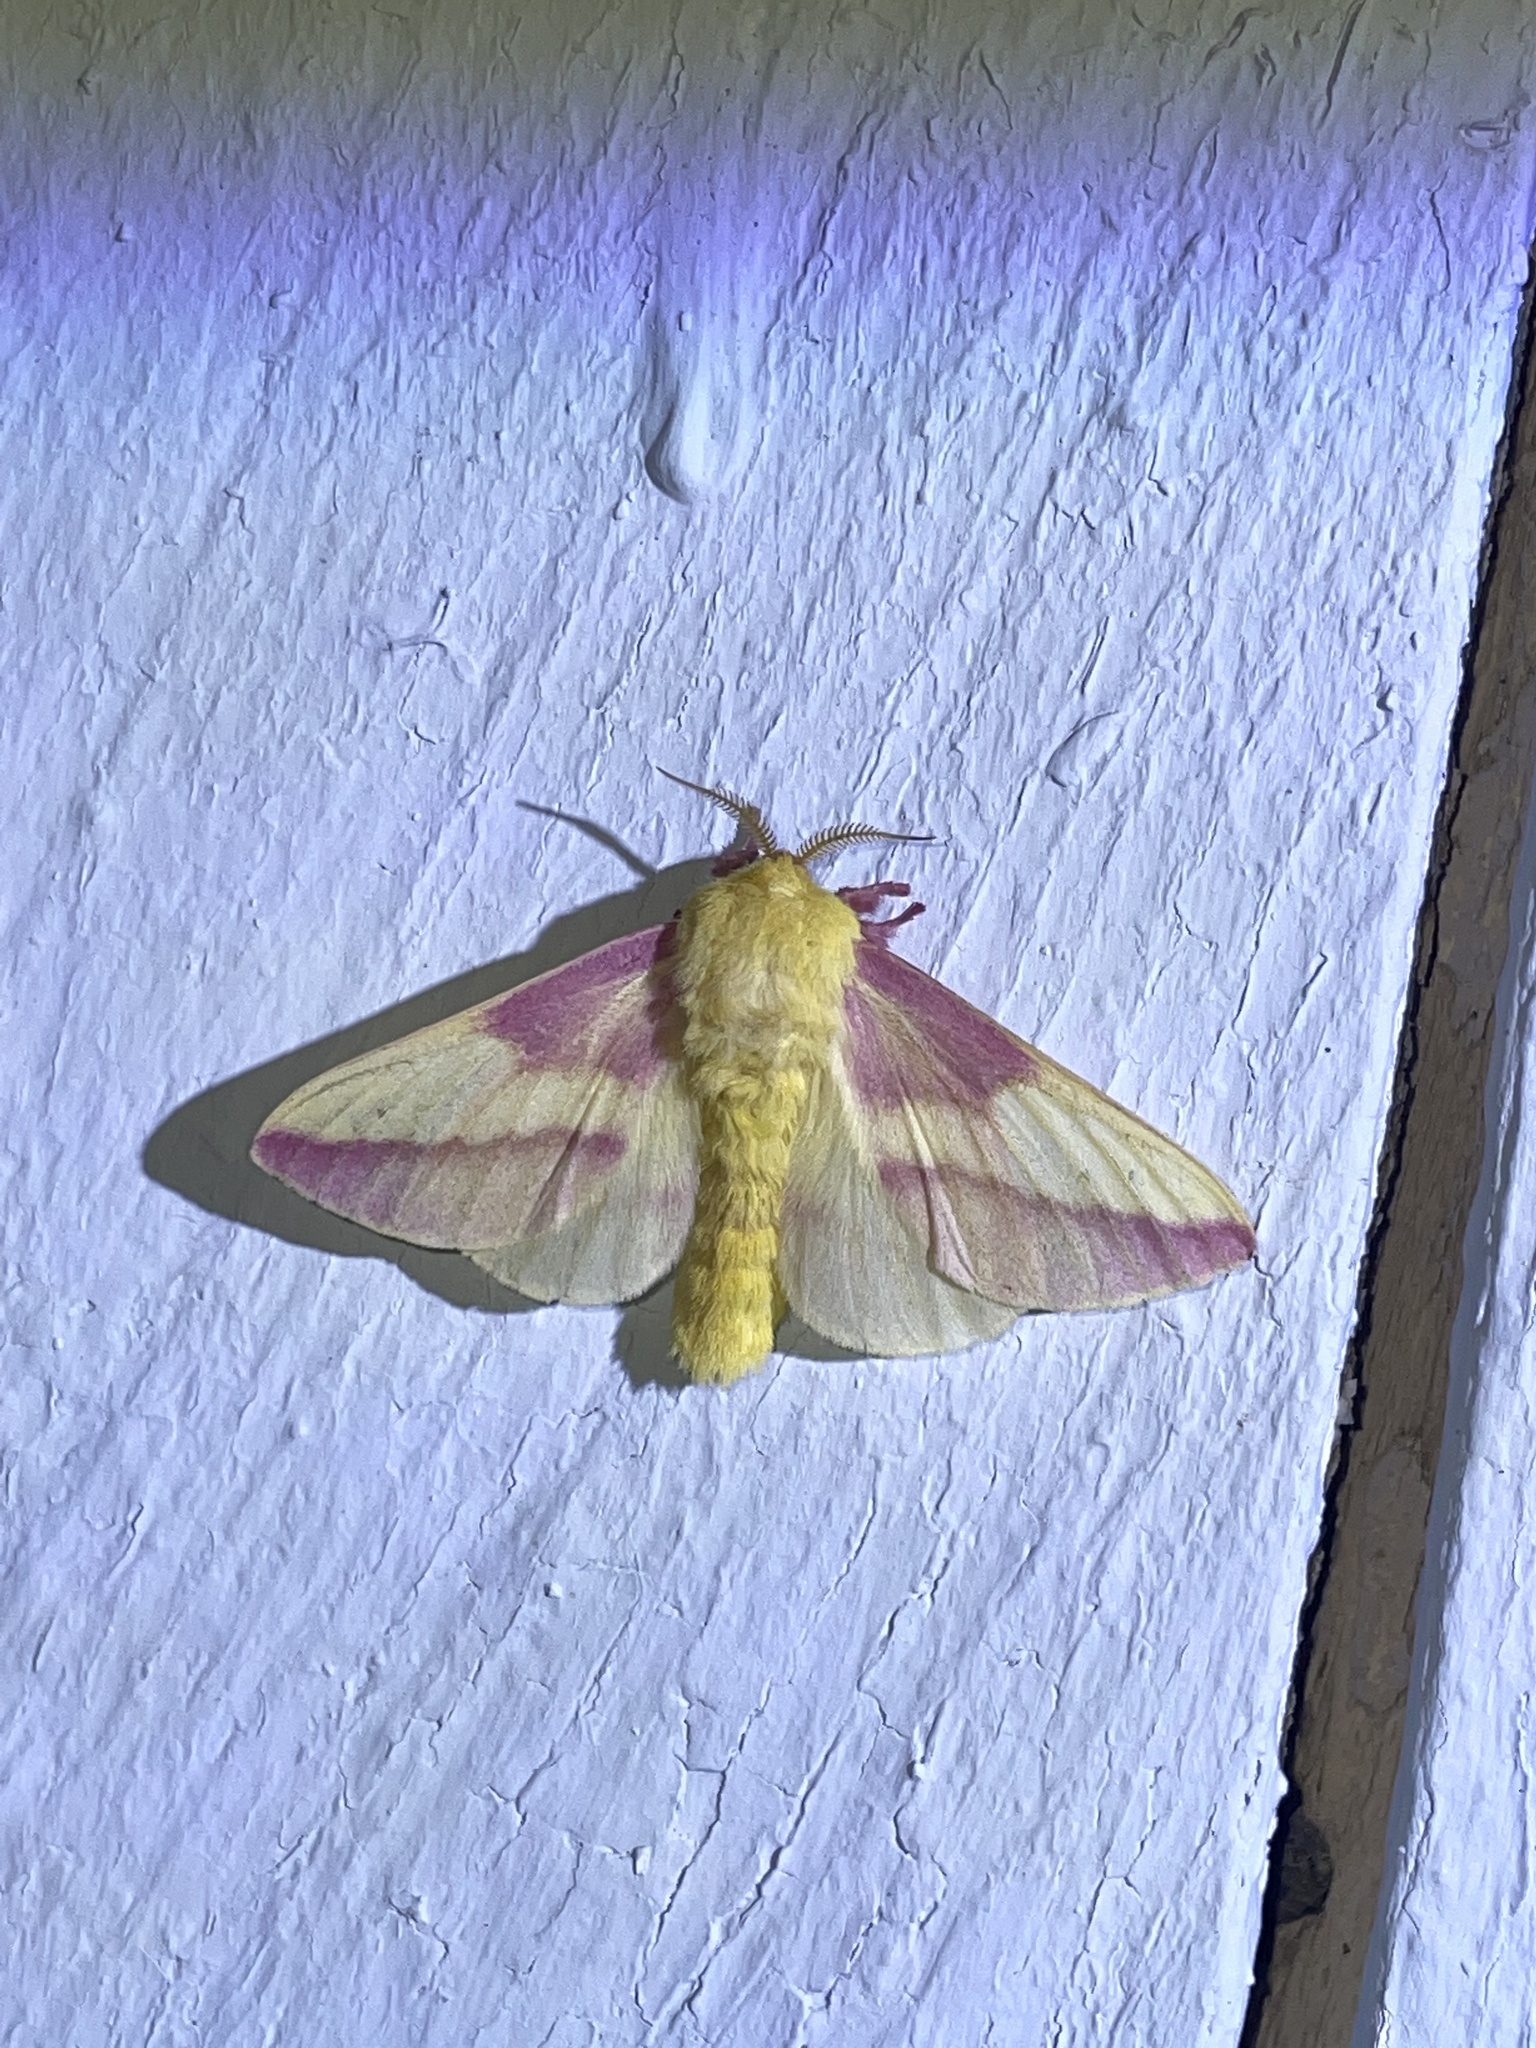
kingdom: Animalia
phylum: Arthropoda
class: Insecta
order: Lepidoptera
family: Saturniidae
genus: Dryocampa
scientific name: Dryocampa rubicunda
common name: Rosy maple moth
